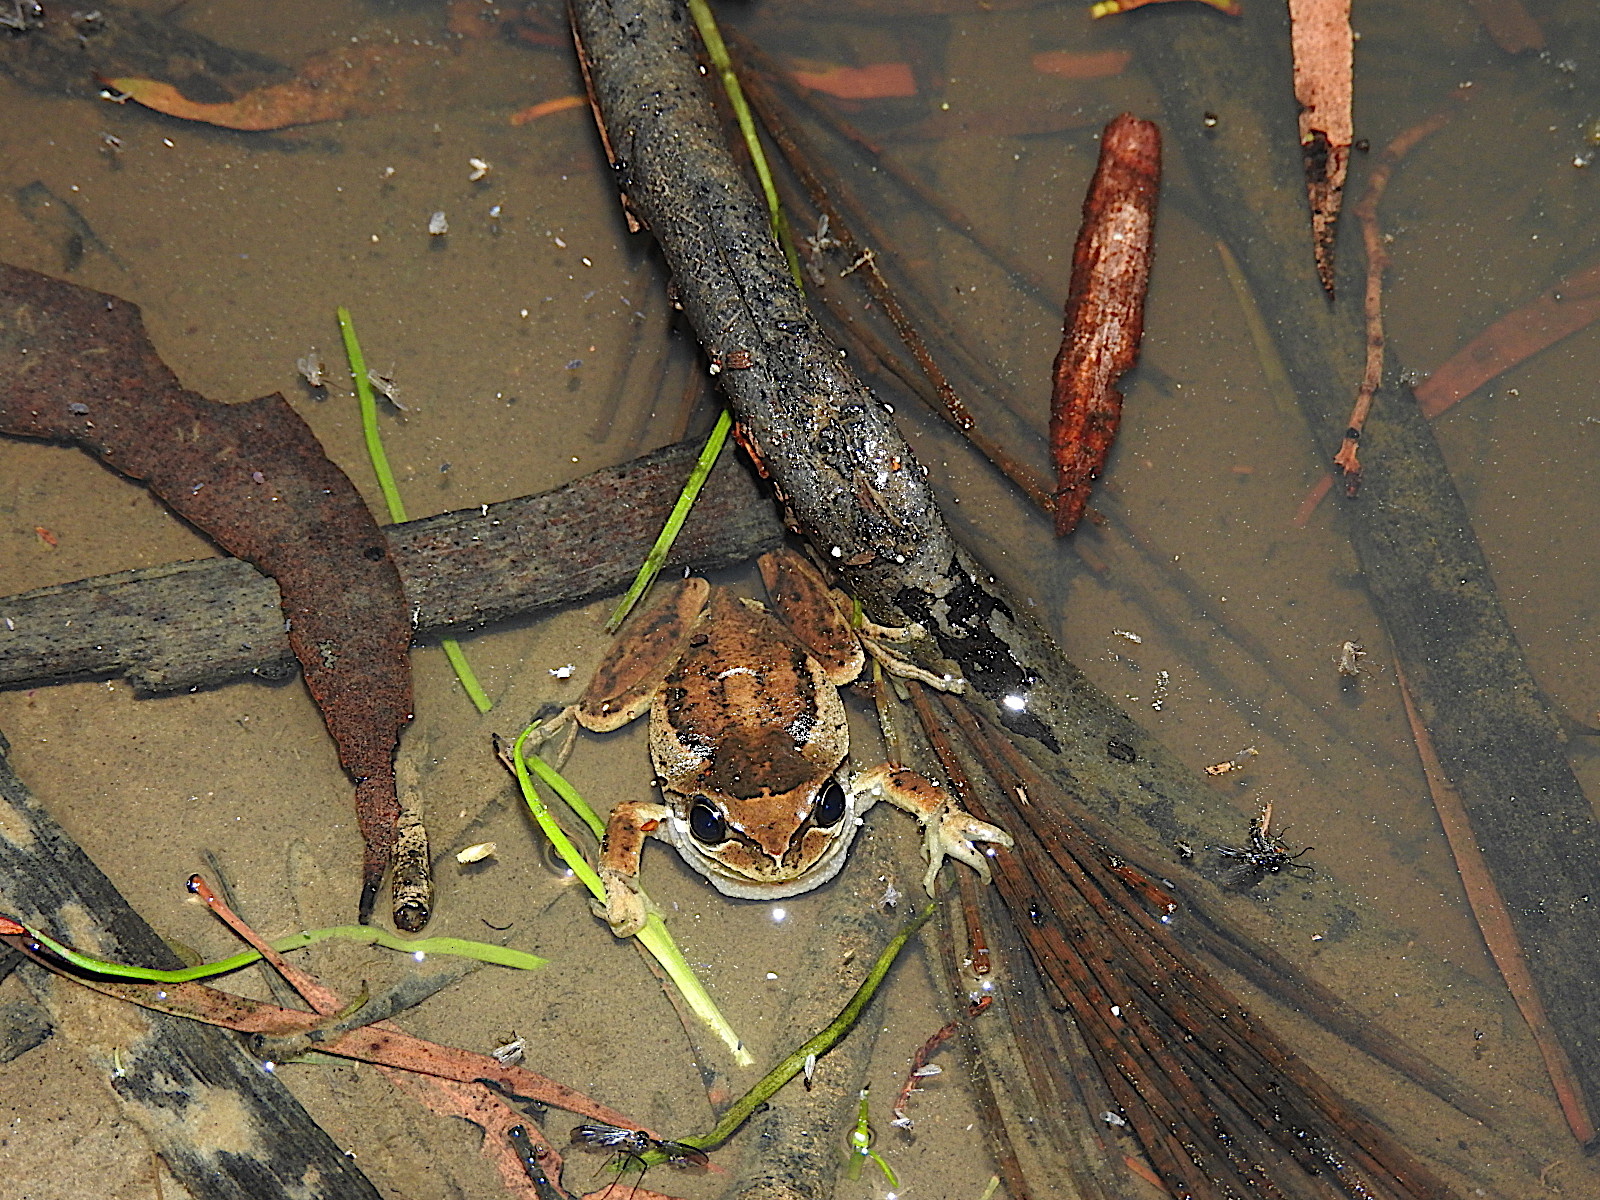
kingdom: Animalia
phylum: Chordata
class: Amphibia
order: Anura
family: Pelodryadidae
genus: Litoria
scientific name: Litoria ewingii
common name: Southern brown tree frog
